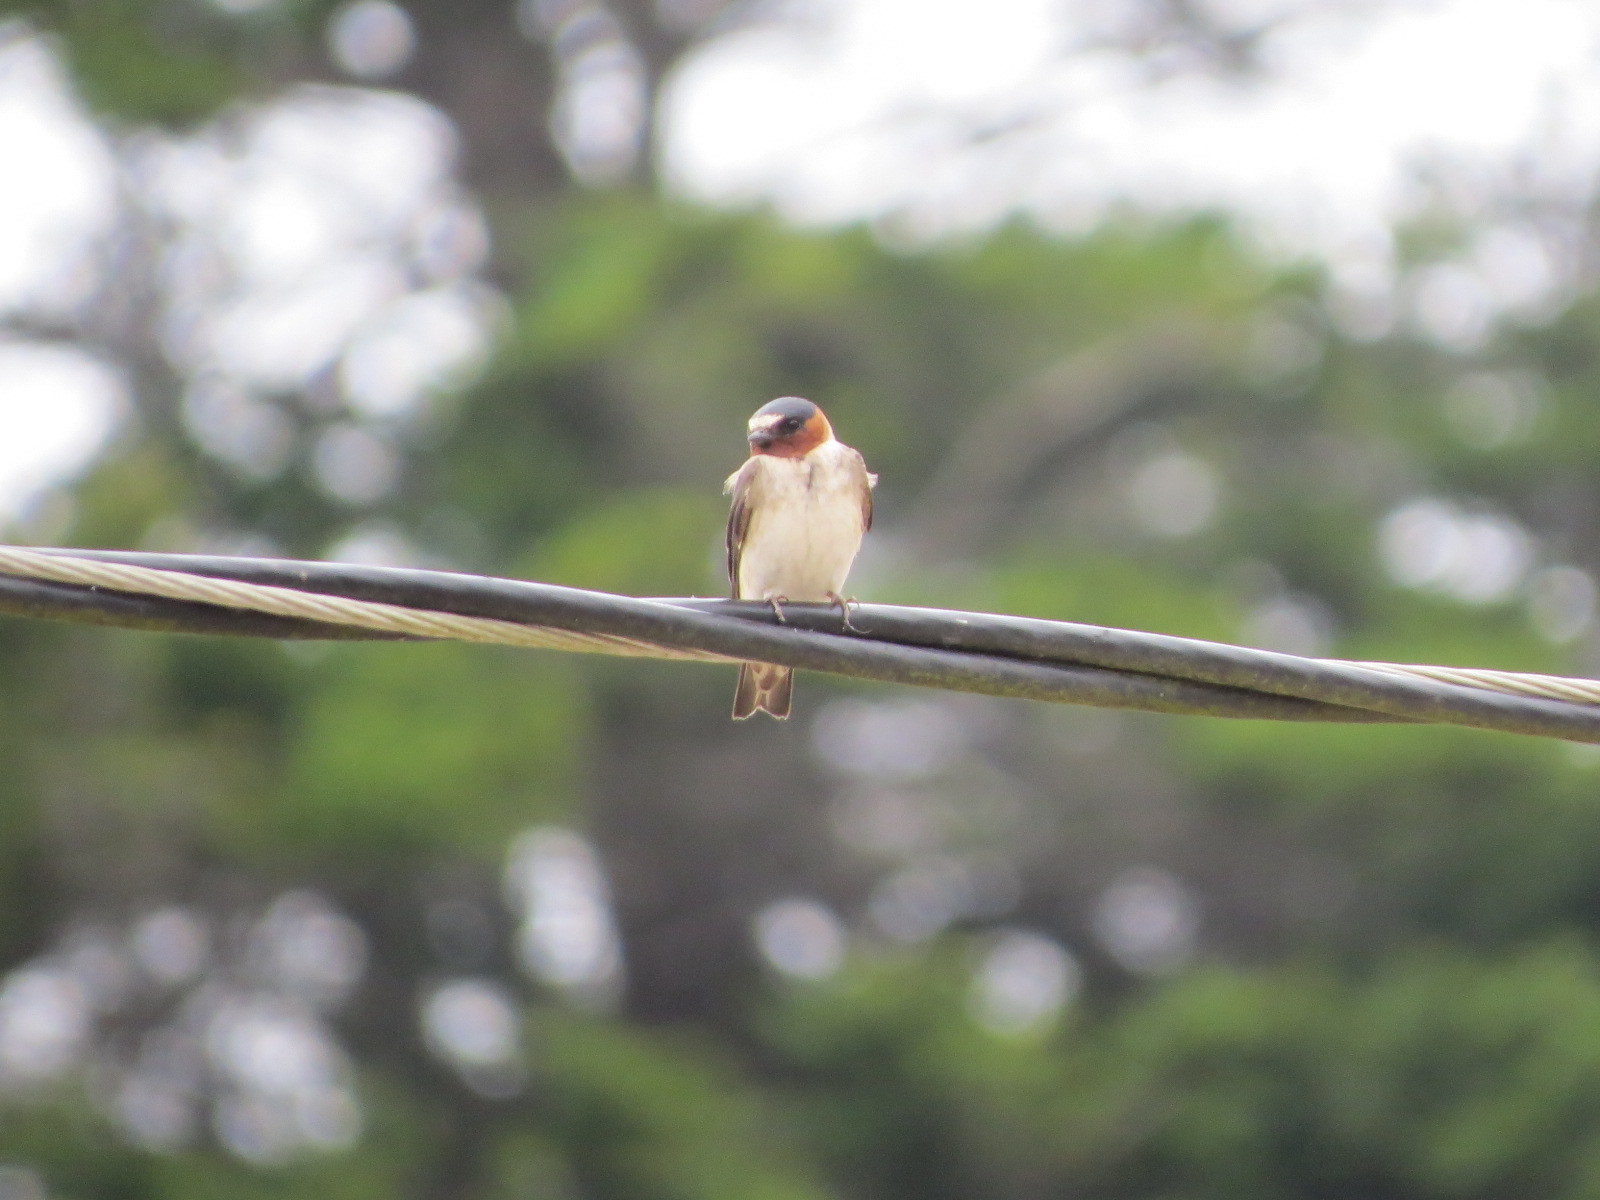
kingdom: Animalia
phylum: Chordata
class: Aves
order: Passeriformes
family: Hirundinidae
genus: Petrochelidon
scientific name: Petrochelidon pyrrhonota
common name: American cliff swallow
